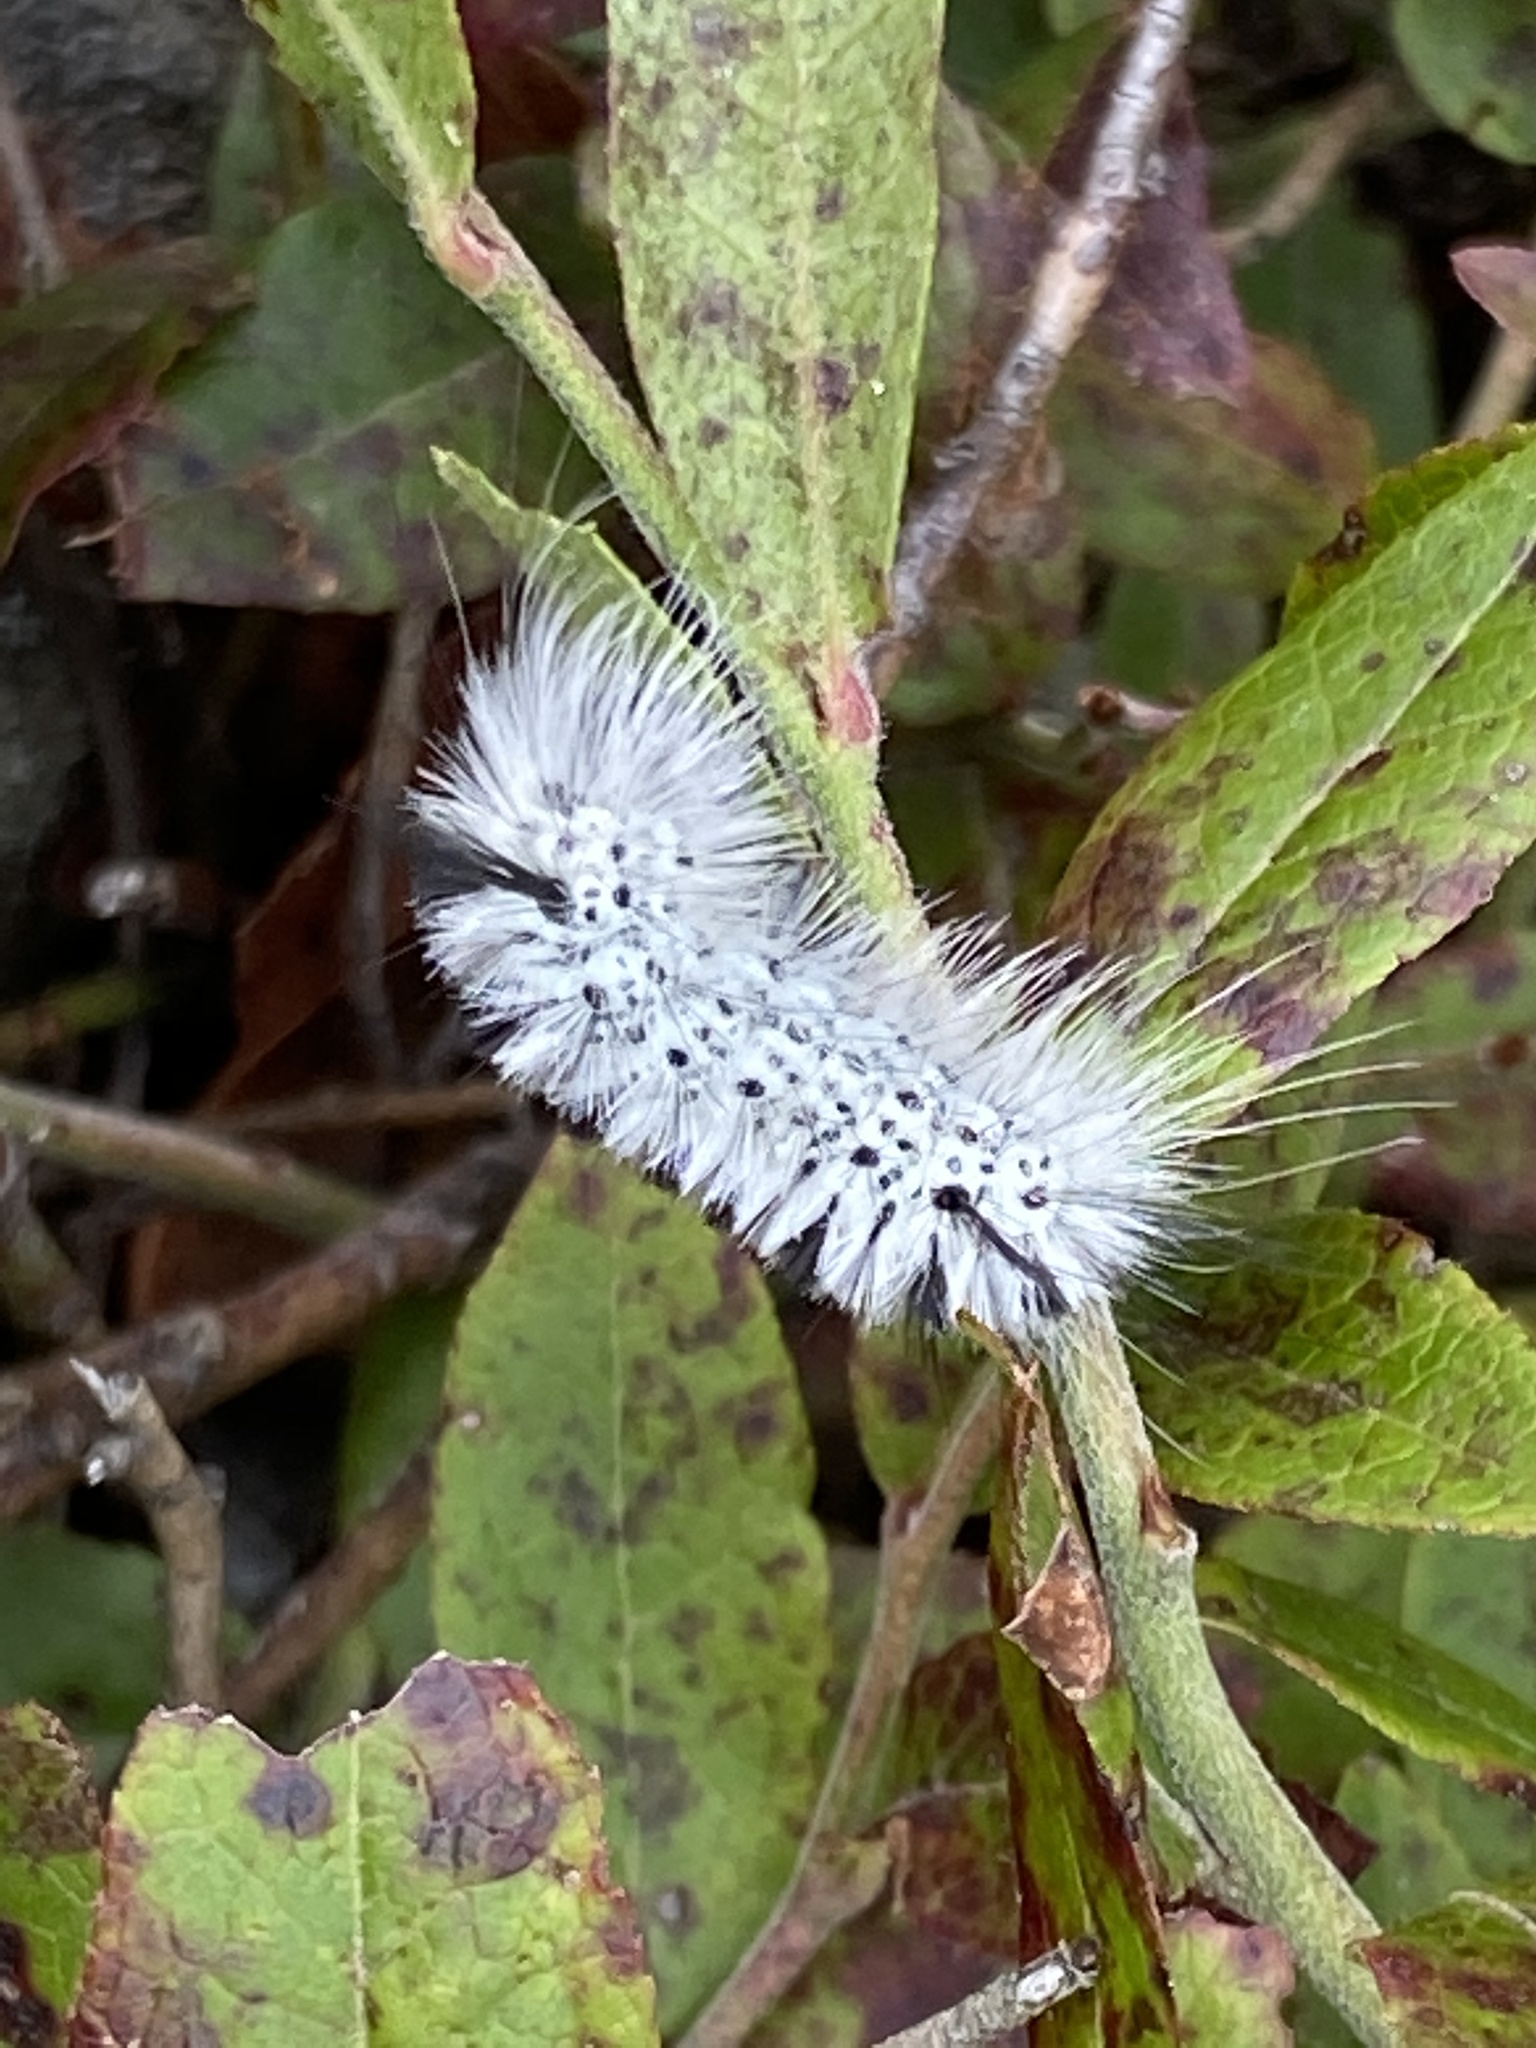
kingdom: Animalia
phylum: Arthropoda
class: Insecta
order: Lepidoptera
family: Erebidae
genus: Lophocampa
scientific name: Lophocampa caryae
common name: Hickory tussock moth
